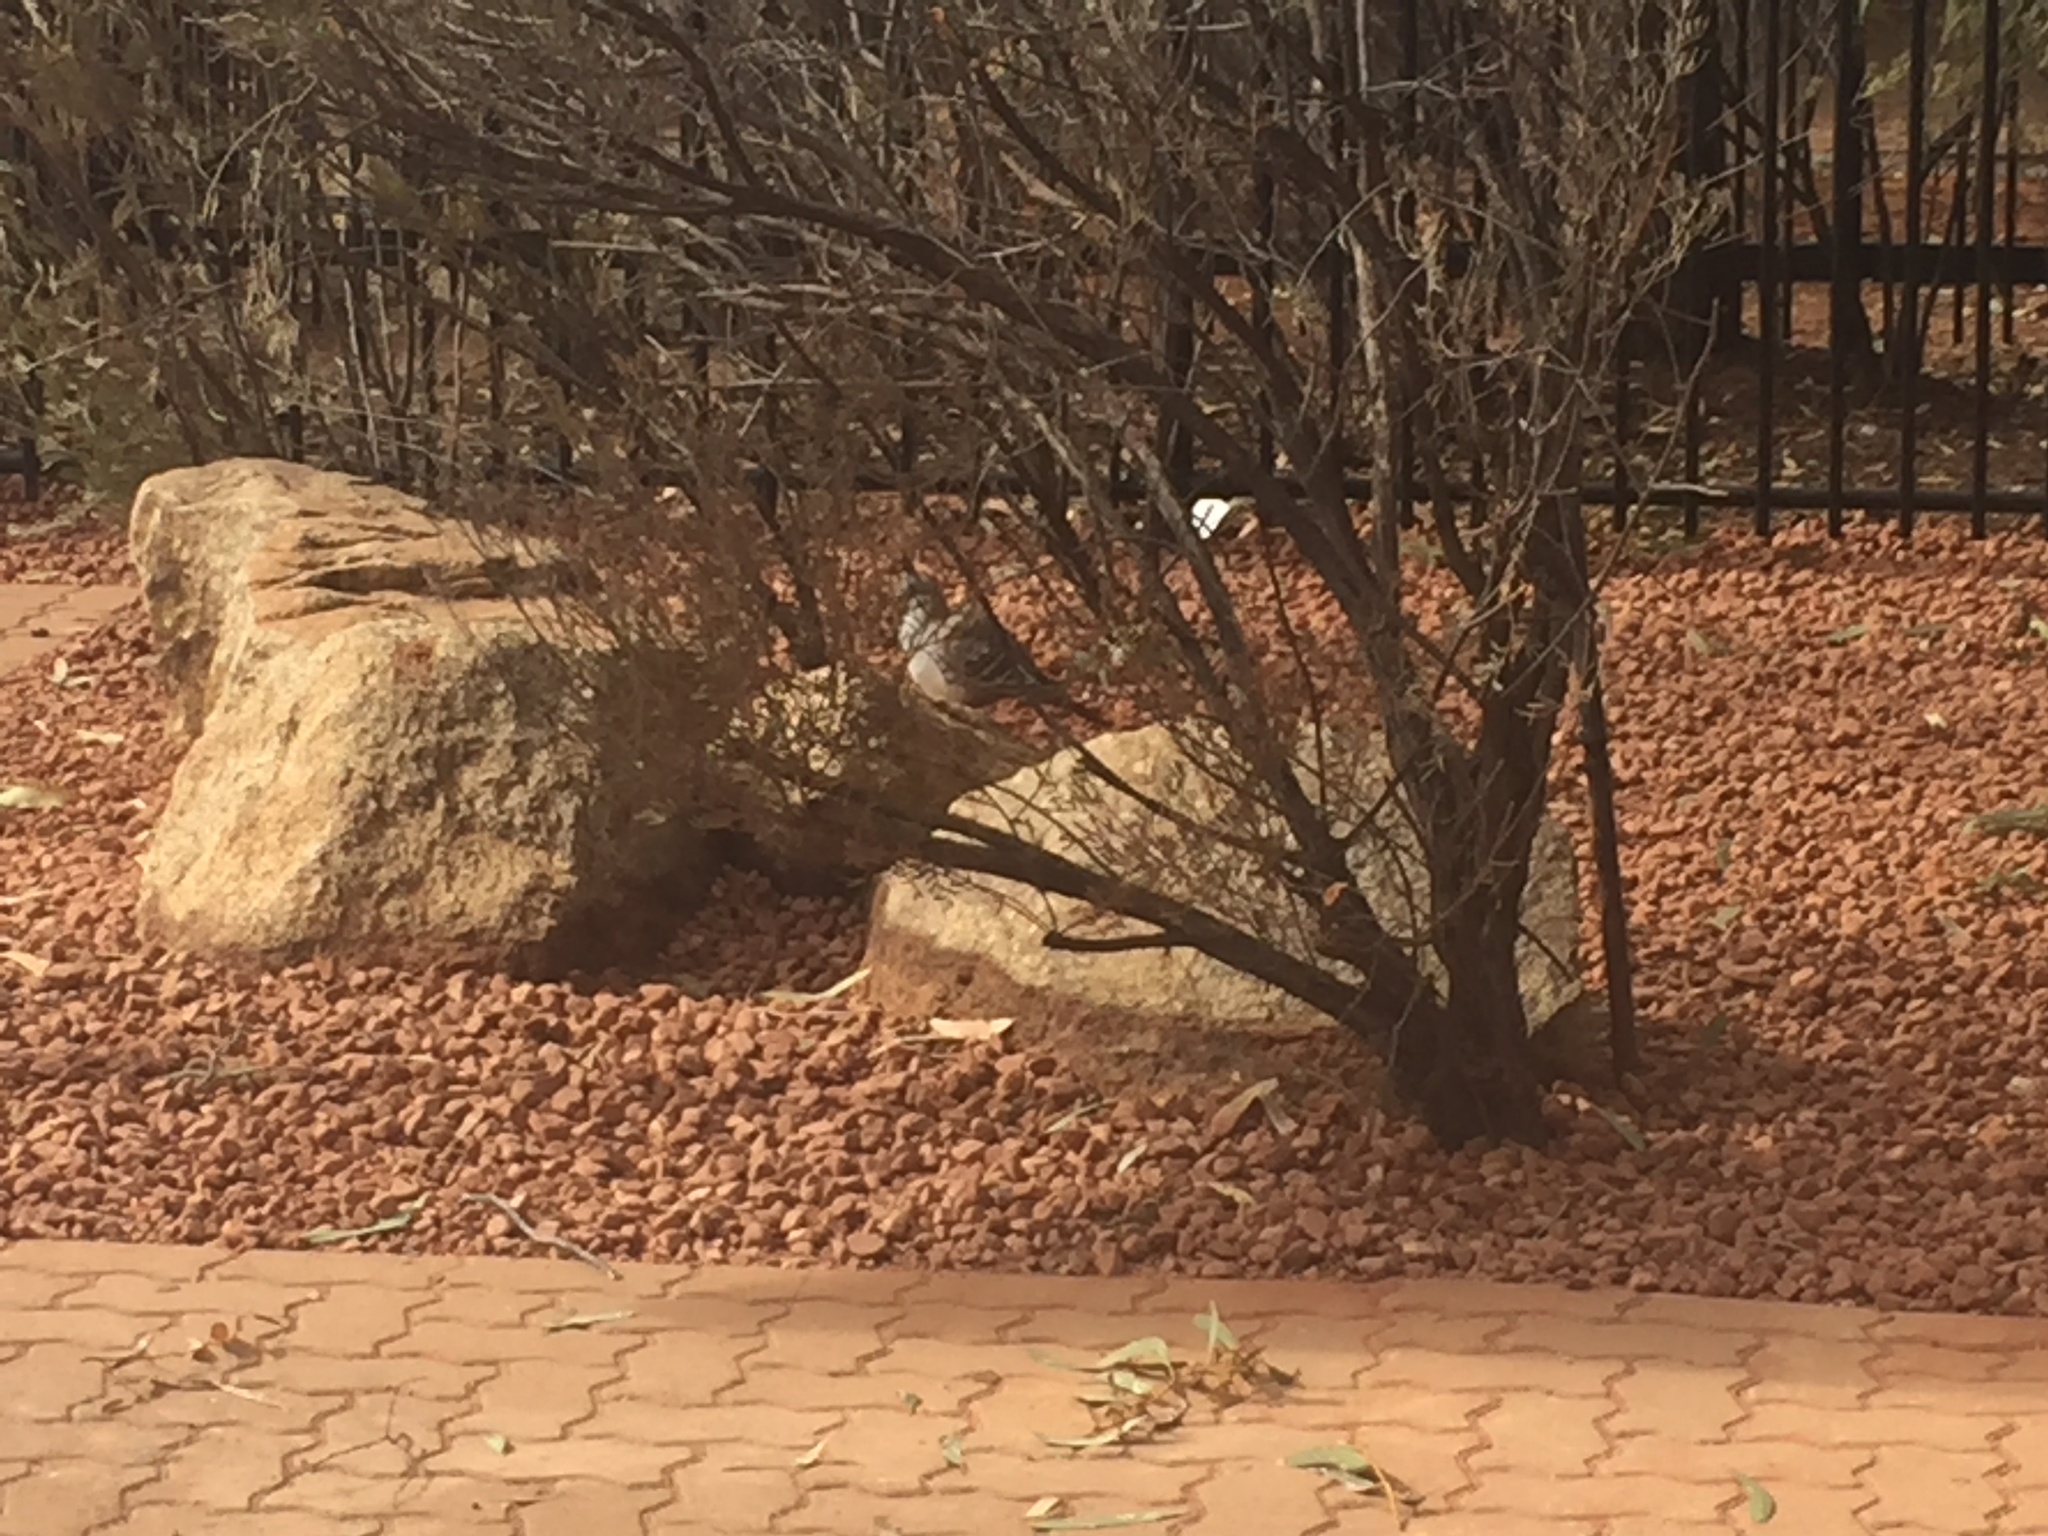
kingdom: Animalia
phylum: Chordata
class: Aves
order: Columbiformes
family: Columbidae
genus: Ocyphaps
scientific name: Ocyphaps lophotes
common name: Crested pigeon
